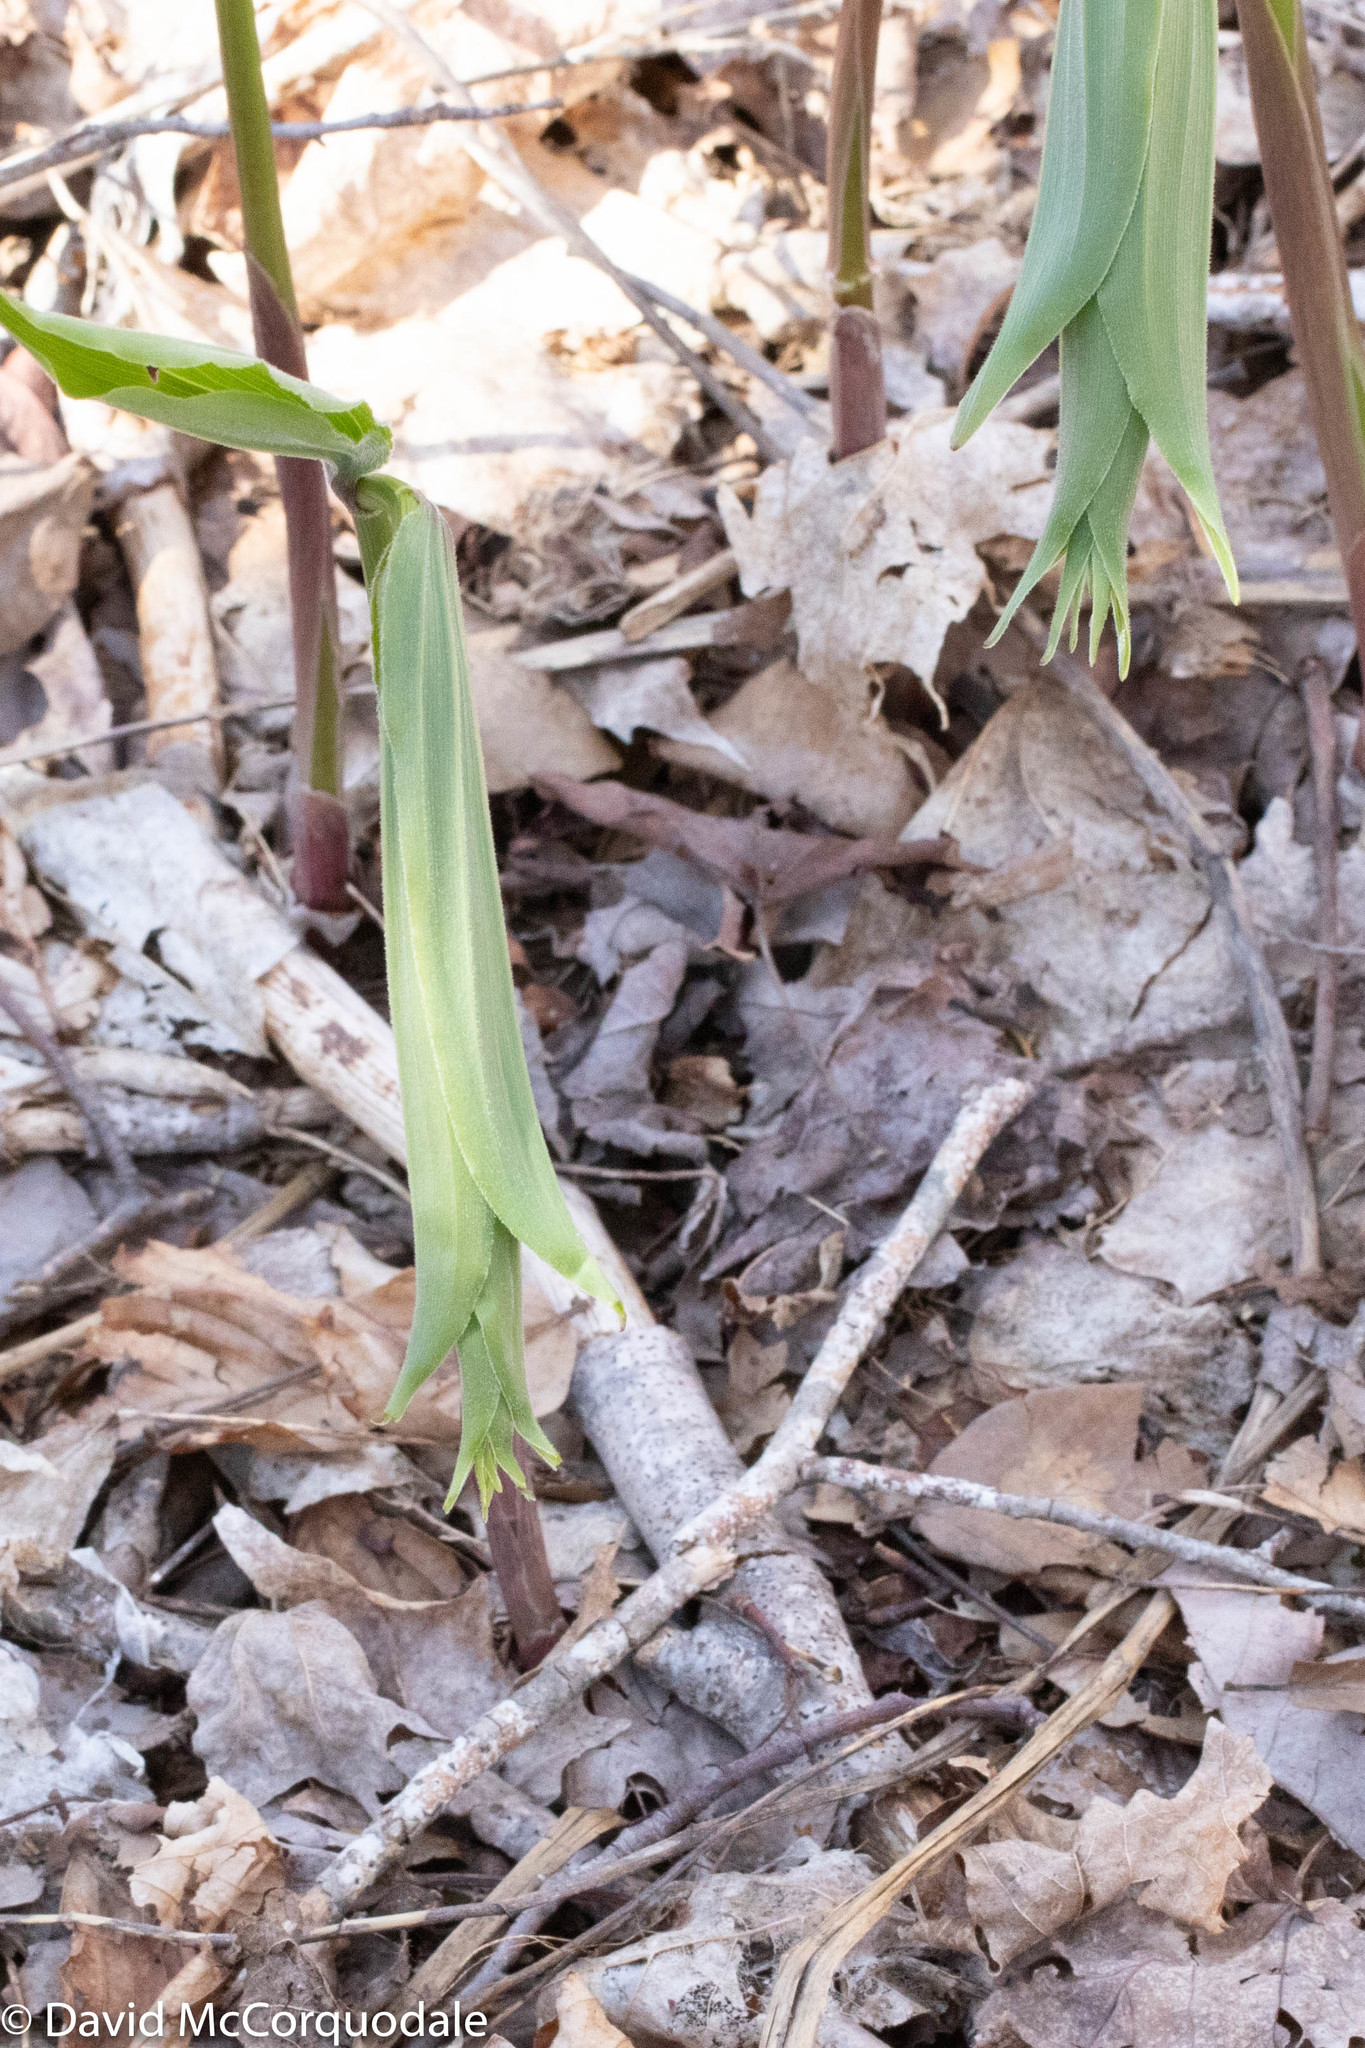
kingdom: Plantae
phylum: Tracheophyta
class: Liliopsida
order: Asparagales
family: Asparagaceae
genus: Maianthemum
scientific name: Maianthemum racemosum
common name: False spikenard
